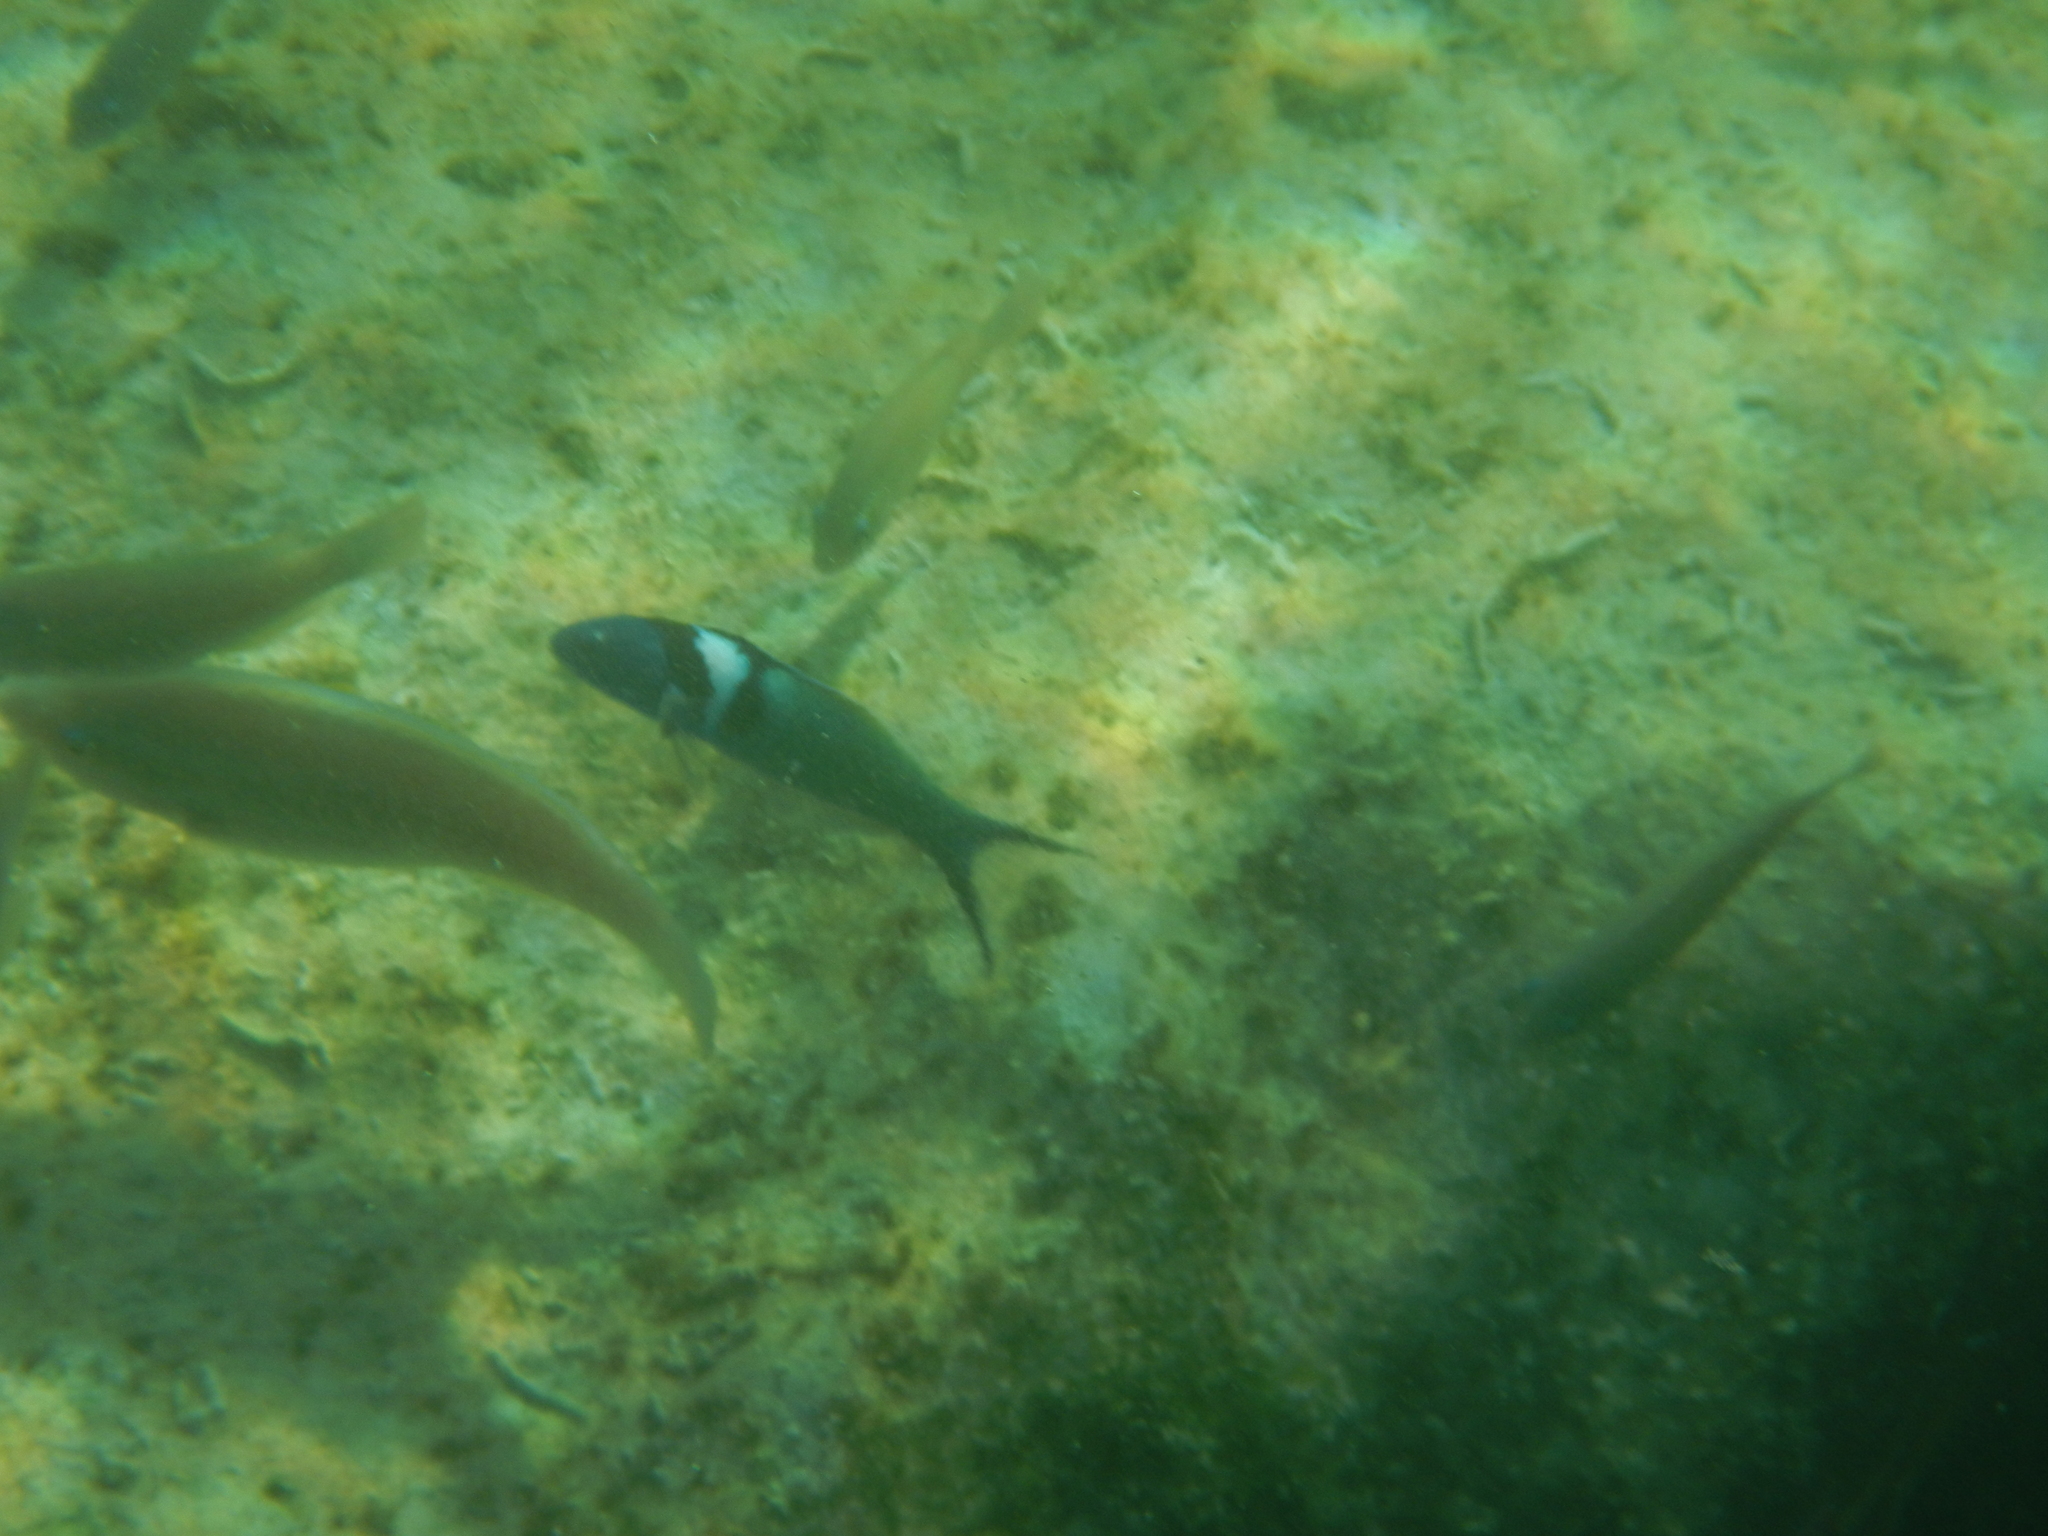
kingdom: Animalia
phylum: Chordata
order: Perciformes
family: Labridae
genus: Thalassoma
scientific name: Thalassoma bifasciatum
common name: Bluehead wrasse
